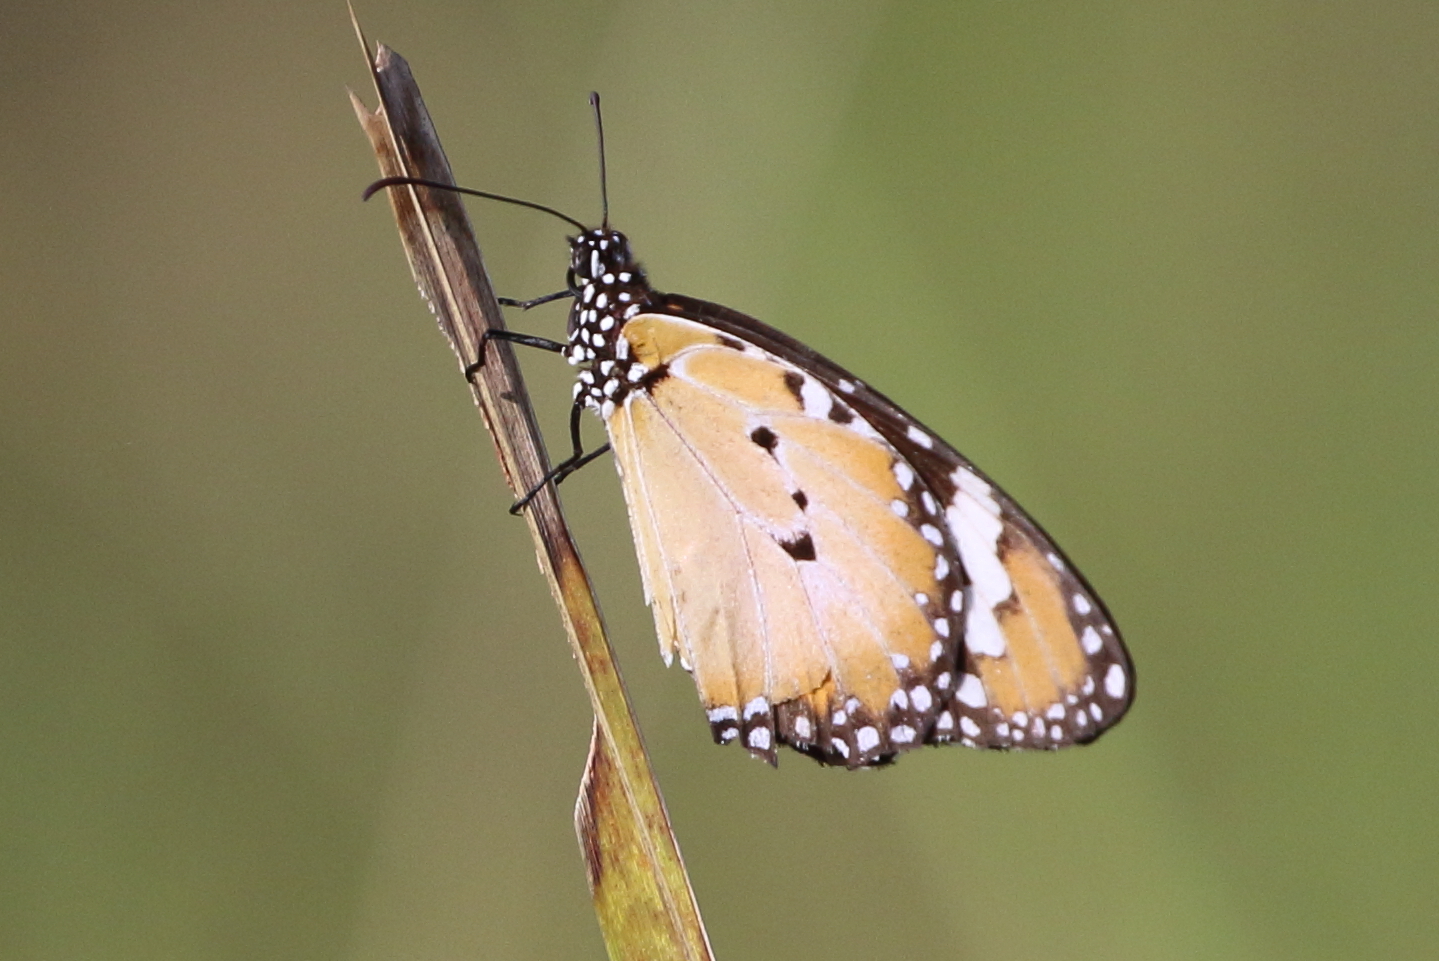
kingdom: Animalia
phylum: Arthropoda
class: Insecta
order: Lepidoptera
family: Nymphalidae
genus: Danaus
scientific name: Danaus chrysippus
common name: Plain tiger
